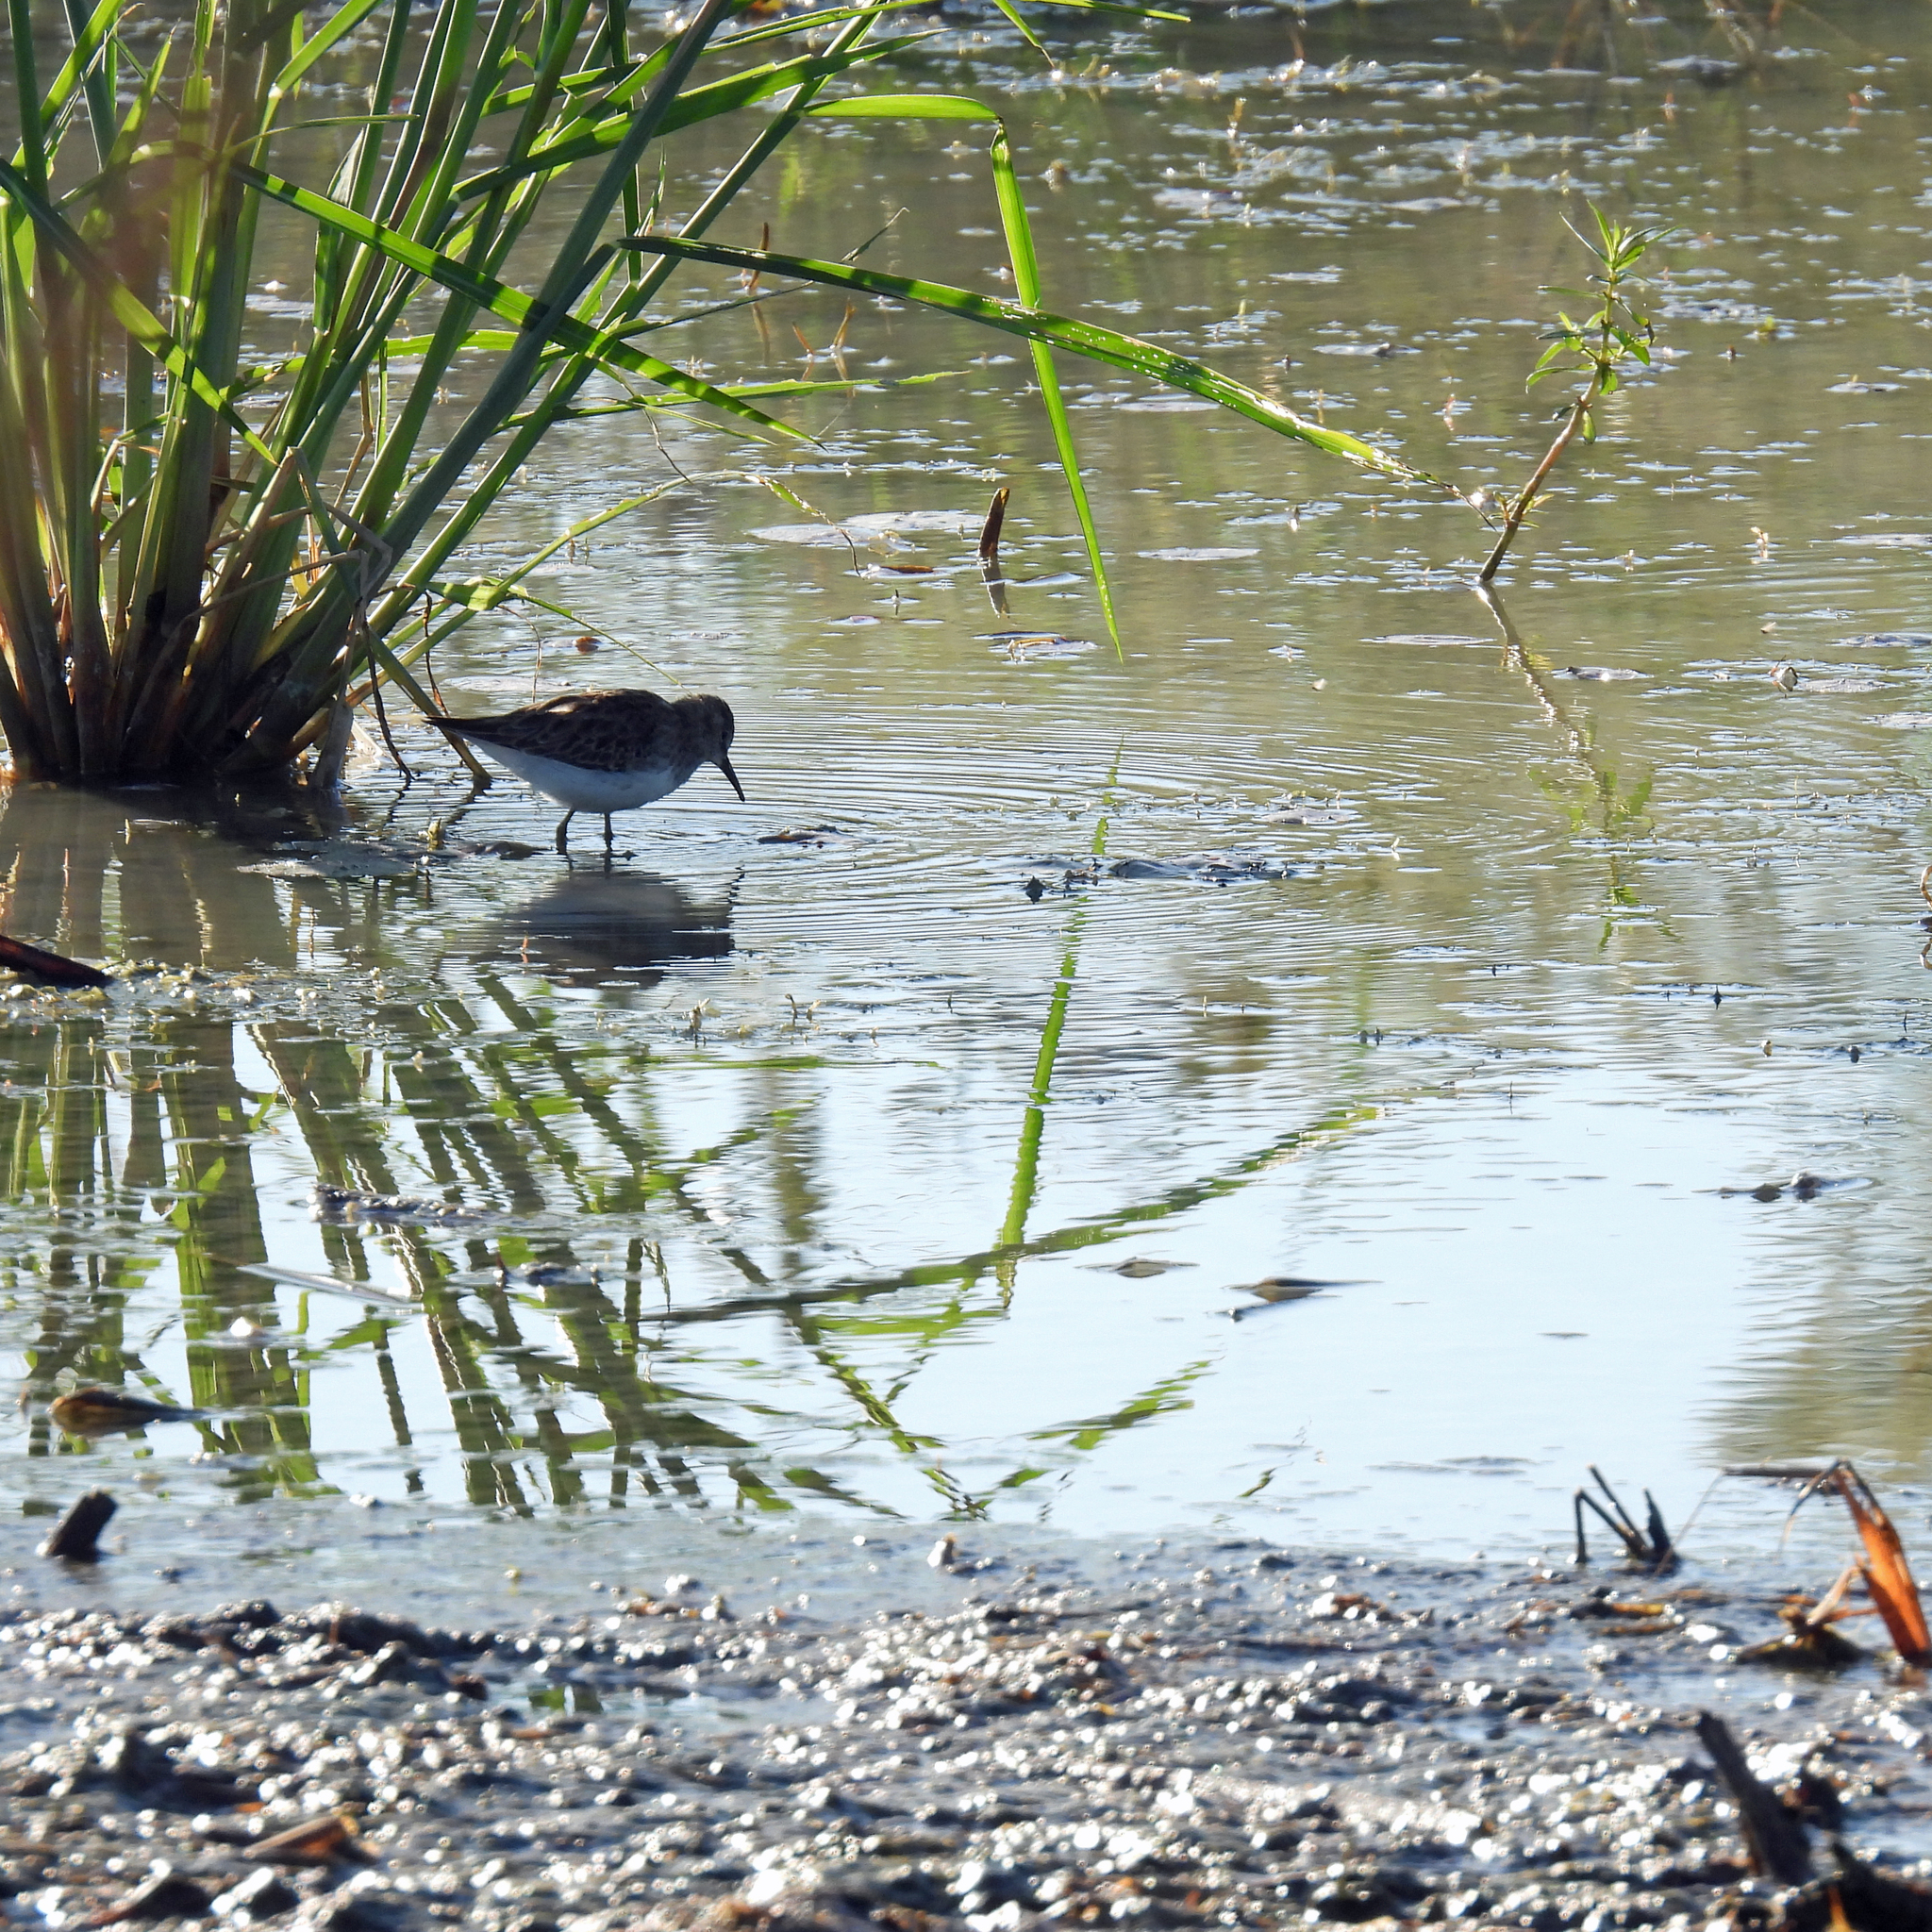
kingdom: Animalia
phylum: Chordata
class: Aves
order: Charadriiformes
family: Scolopacidae
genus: Calidris
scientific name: Calidris minutilla
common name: Least sandpiper
